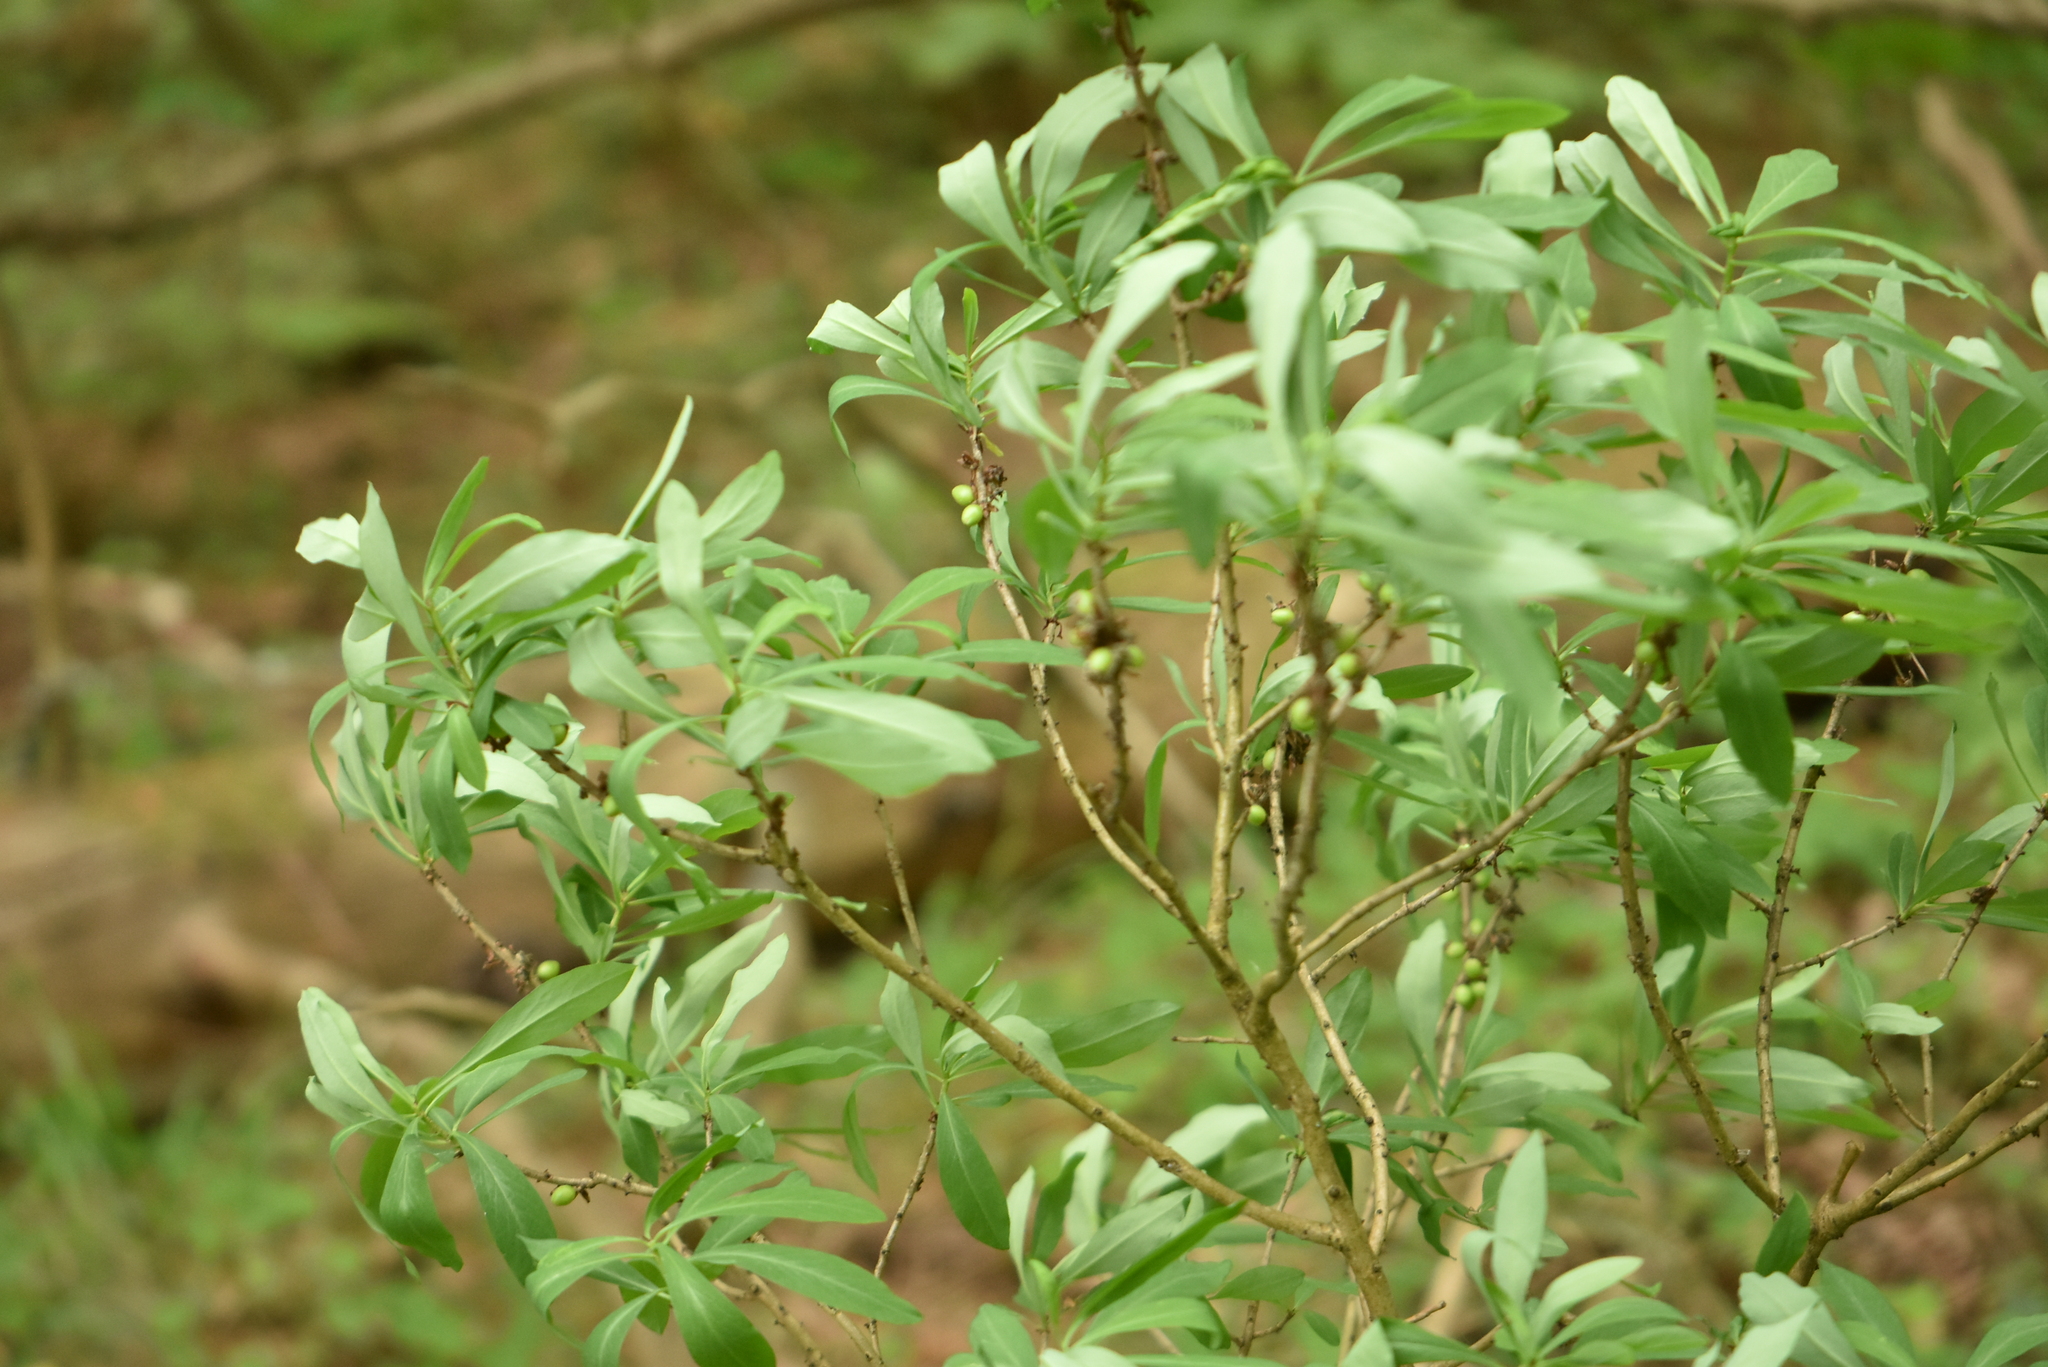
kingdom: Plantae
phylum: Tracheophyta
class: Magnoliopsida
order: Malvales
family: Thymelaeaceae
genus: Daphne
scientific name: Daphne mezereum
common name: Mezereon
